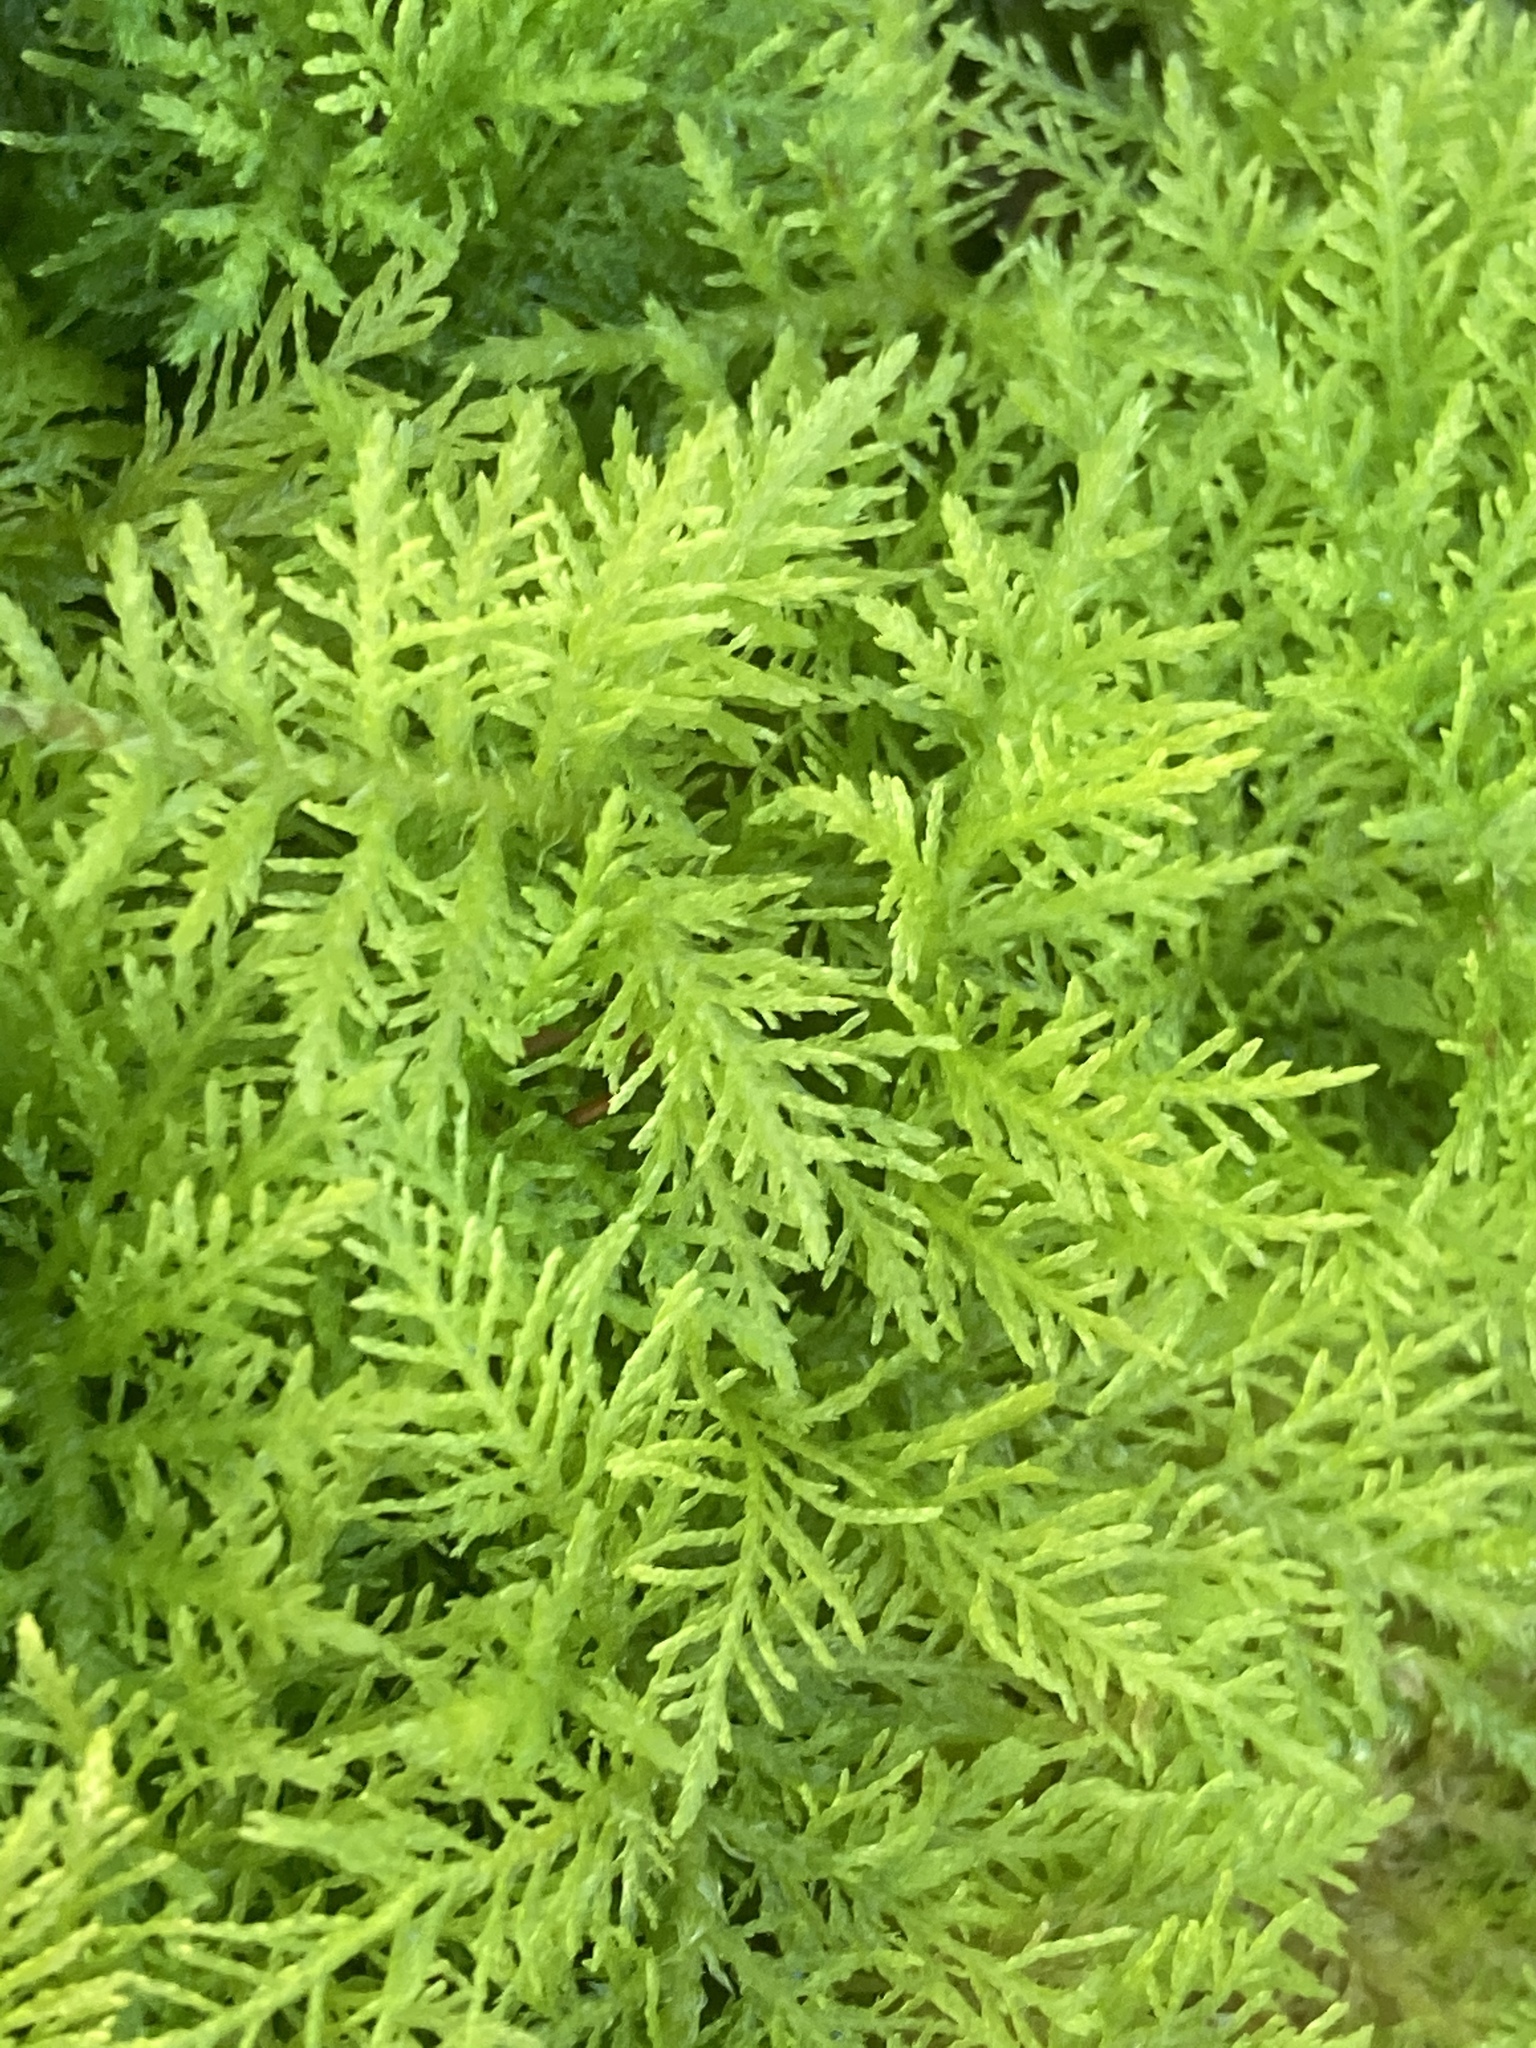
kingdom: Plantae
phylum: Bryophyta
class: Bryopsida
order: Hypnales
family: Thuidiaceae
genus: Thuidium
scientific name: Thuidium tamariscinum
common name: Common tamarisk-moss
